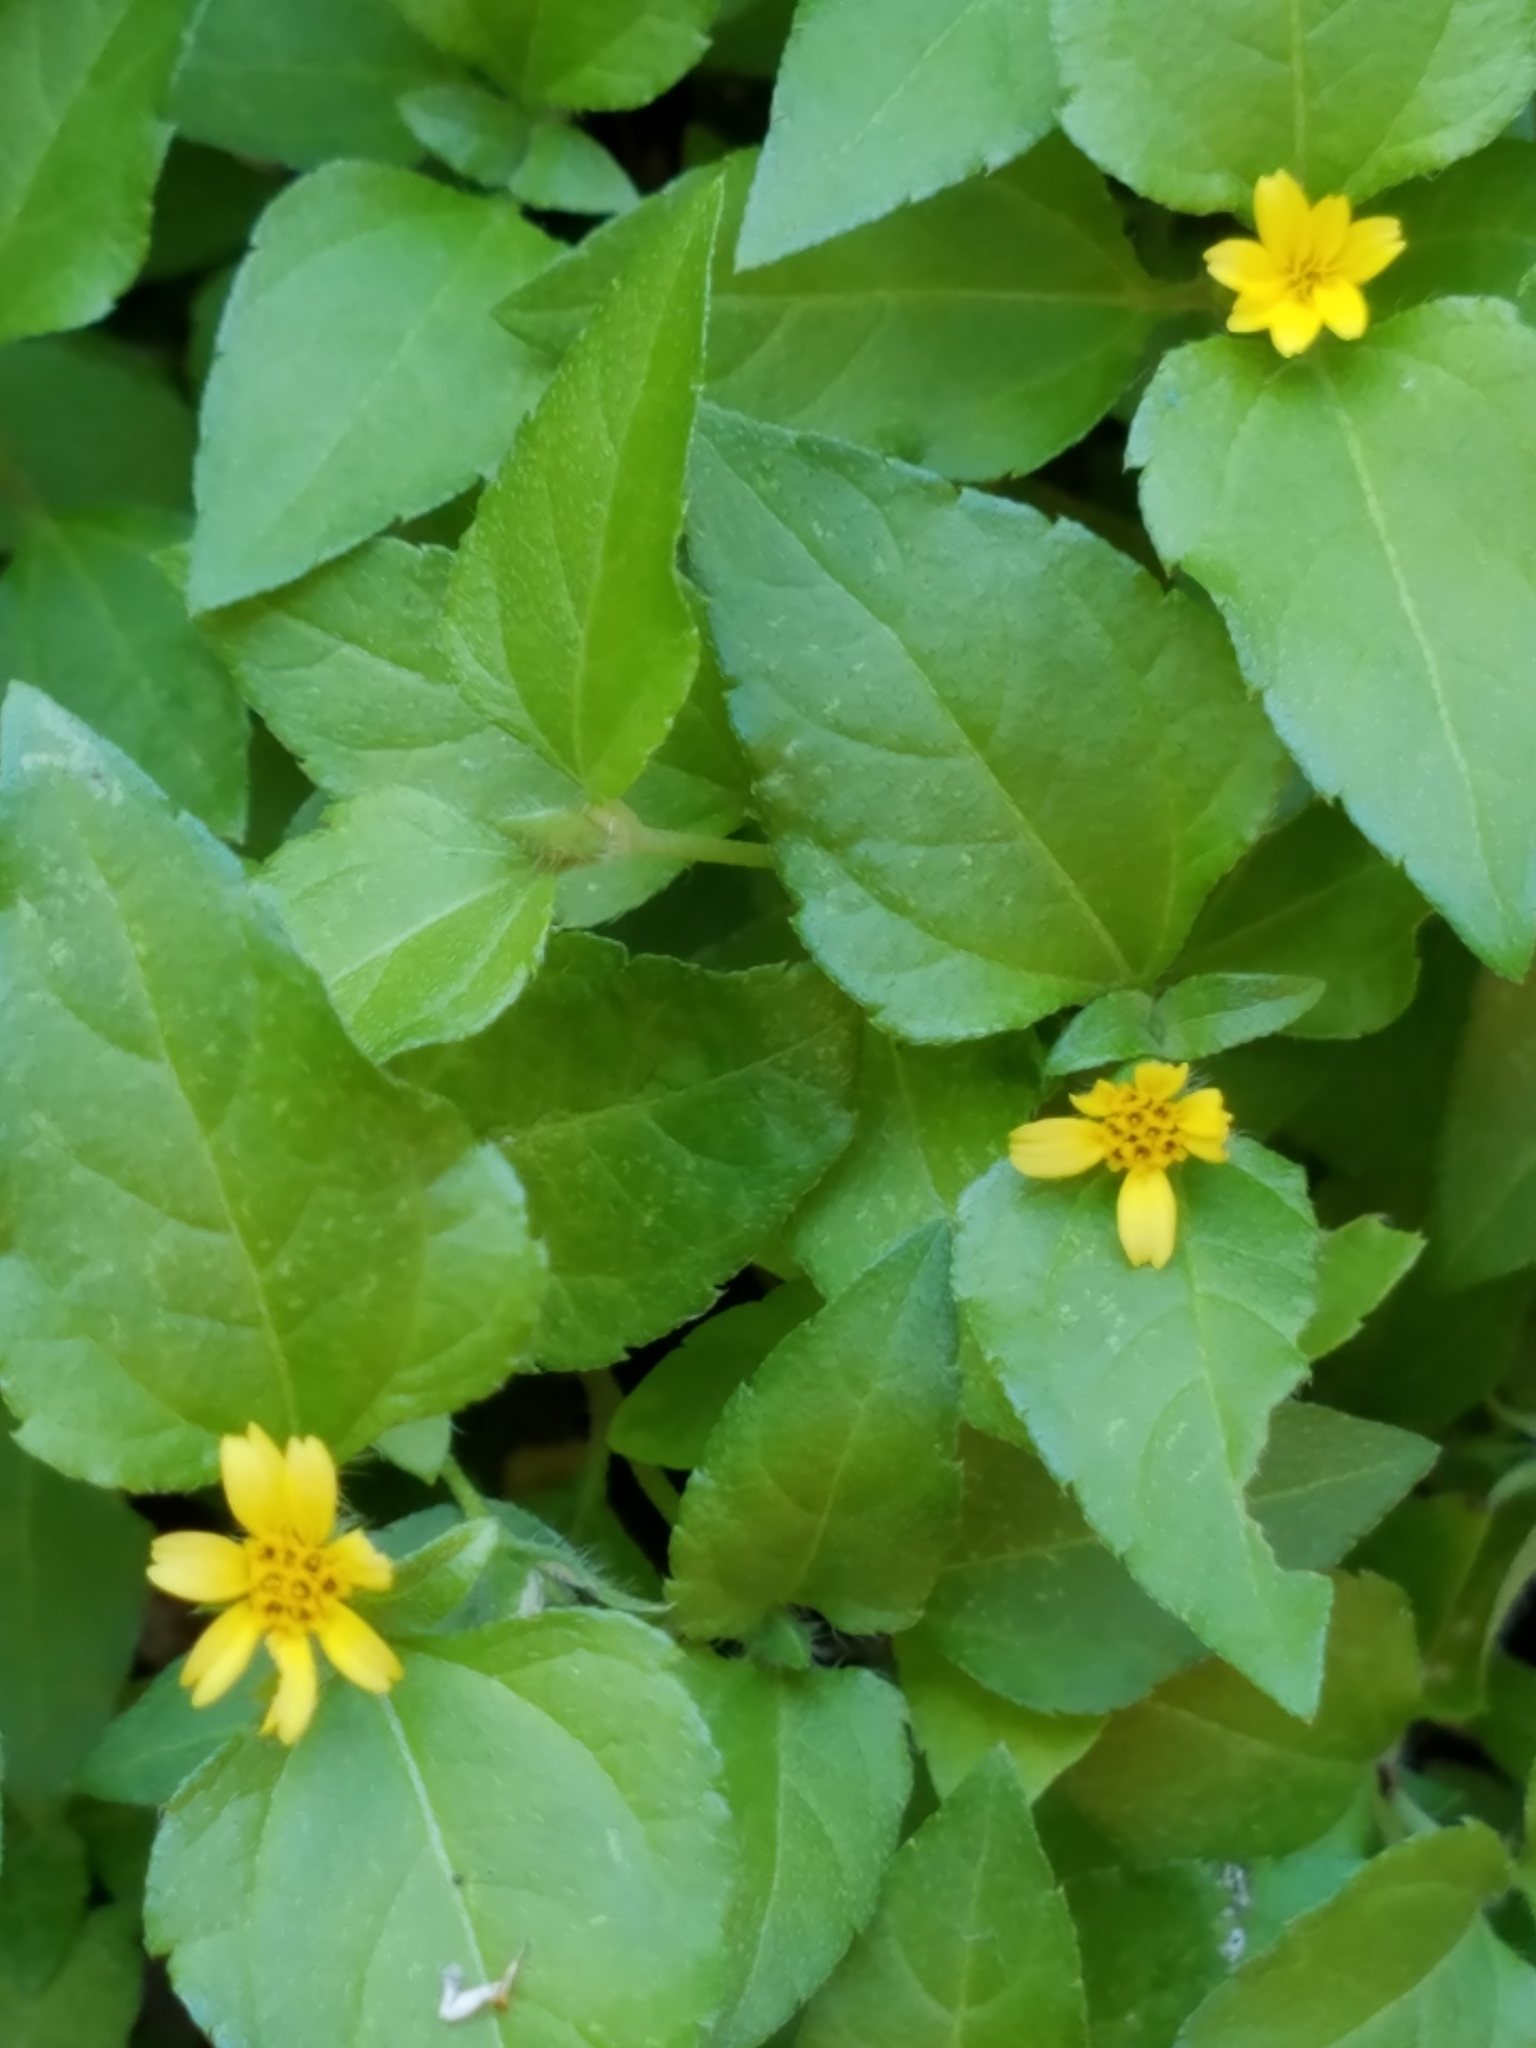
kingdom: Plantae
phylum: Tracheophyta
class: Magnoliopsida
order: Asterales
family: Asteraceae
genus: Calyptocarpus
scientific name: Calyptocarpus vialis
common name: Straggler daisy
